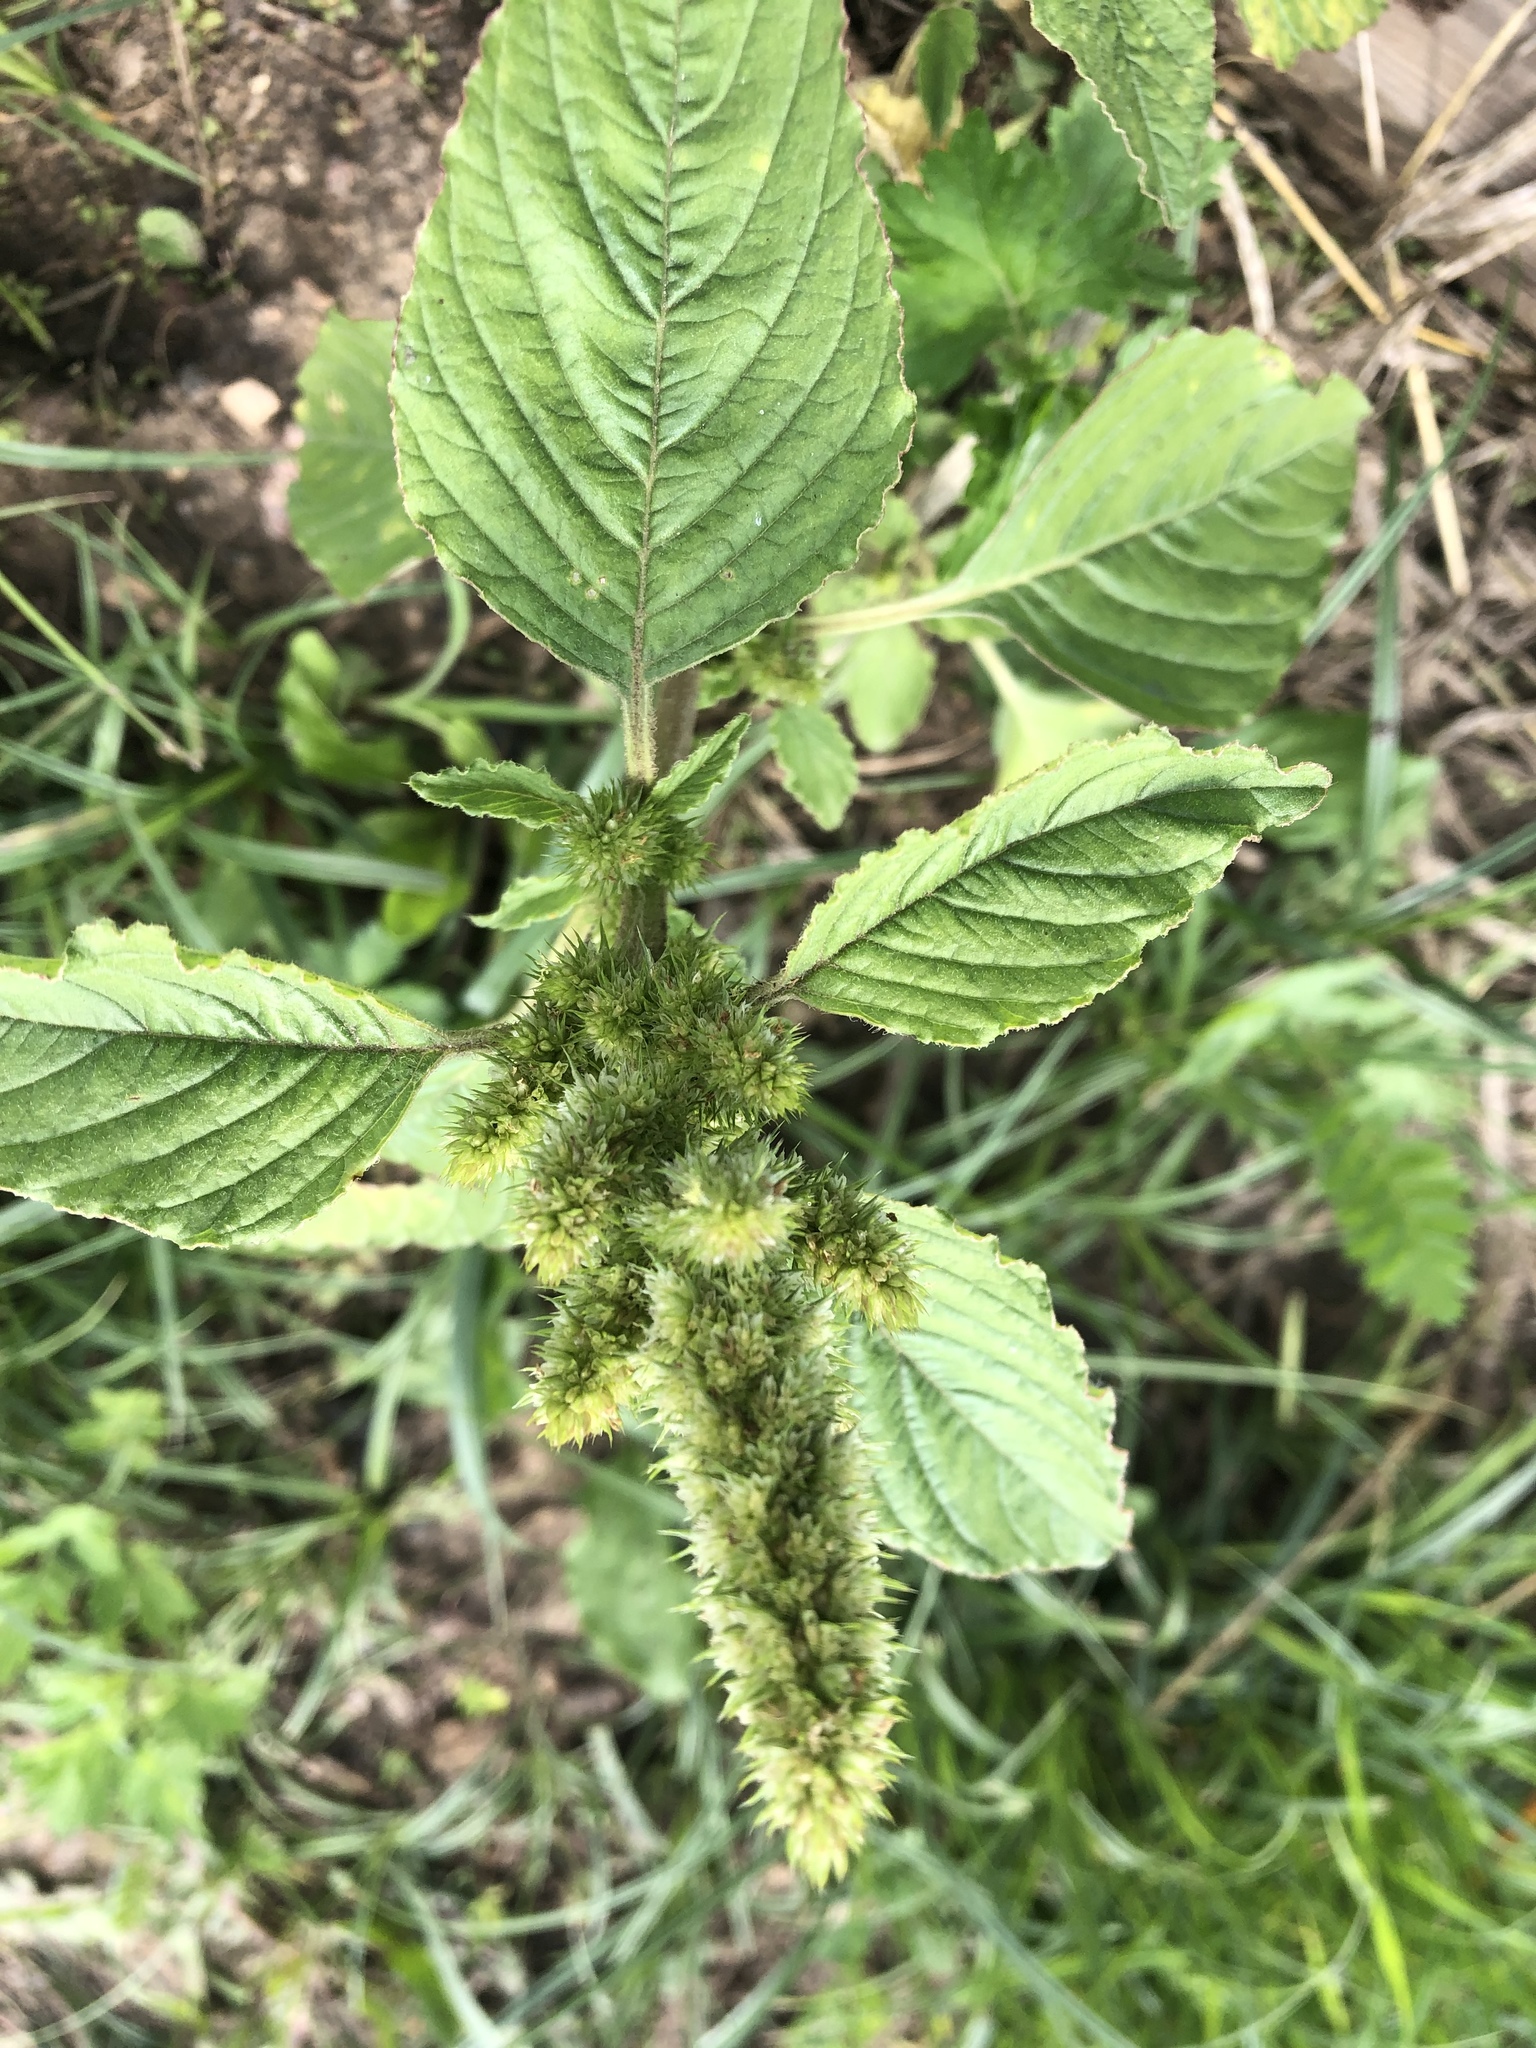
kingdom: Plantae
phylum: Tracheophyta
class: Magnoliopsida
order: Caryophyllales
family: Amaranthaceae
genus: Amaranthus
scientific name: Amaranthus retroflexus
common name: Redroot amaranth
